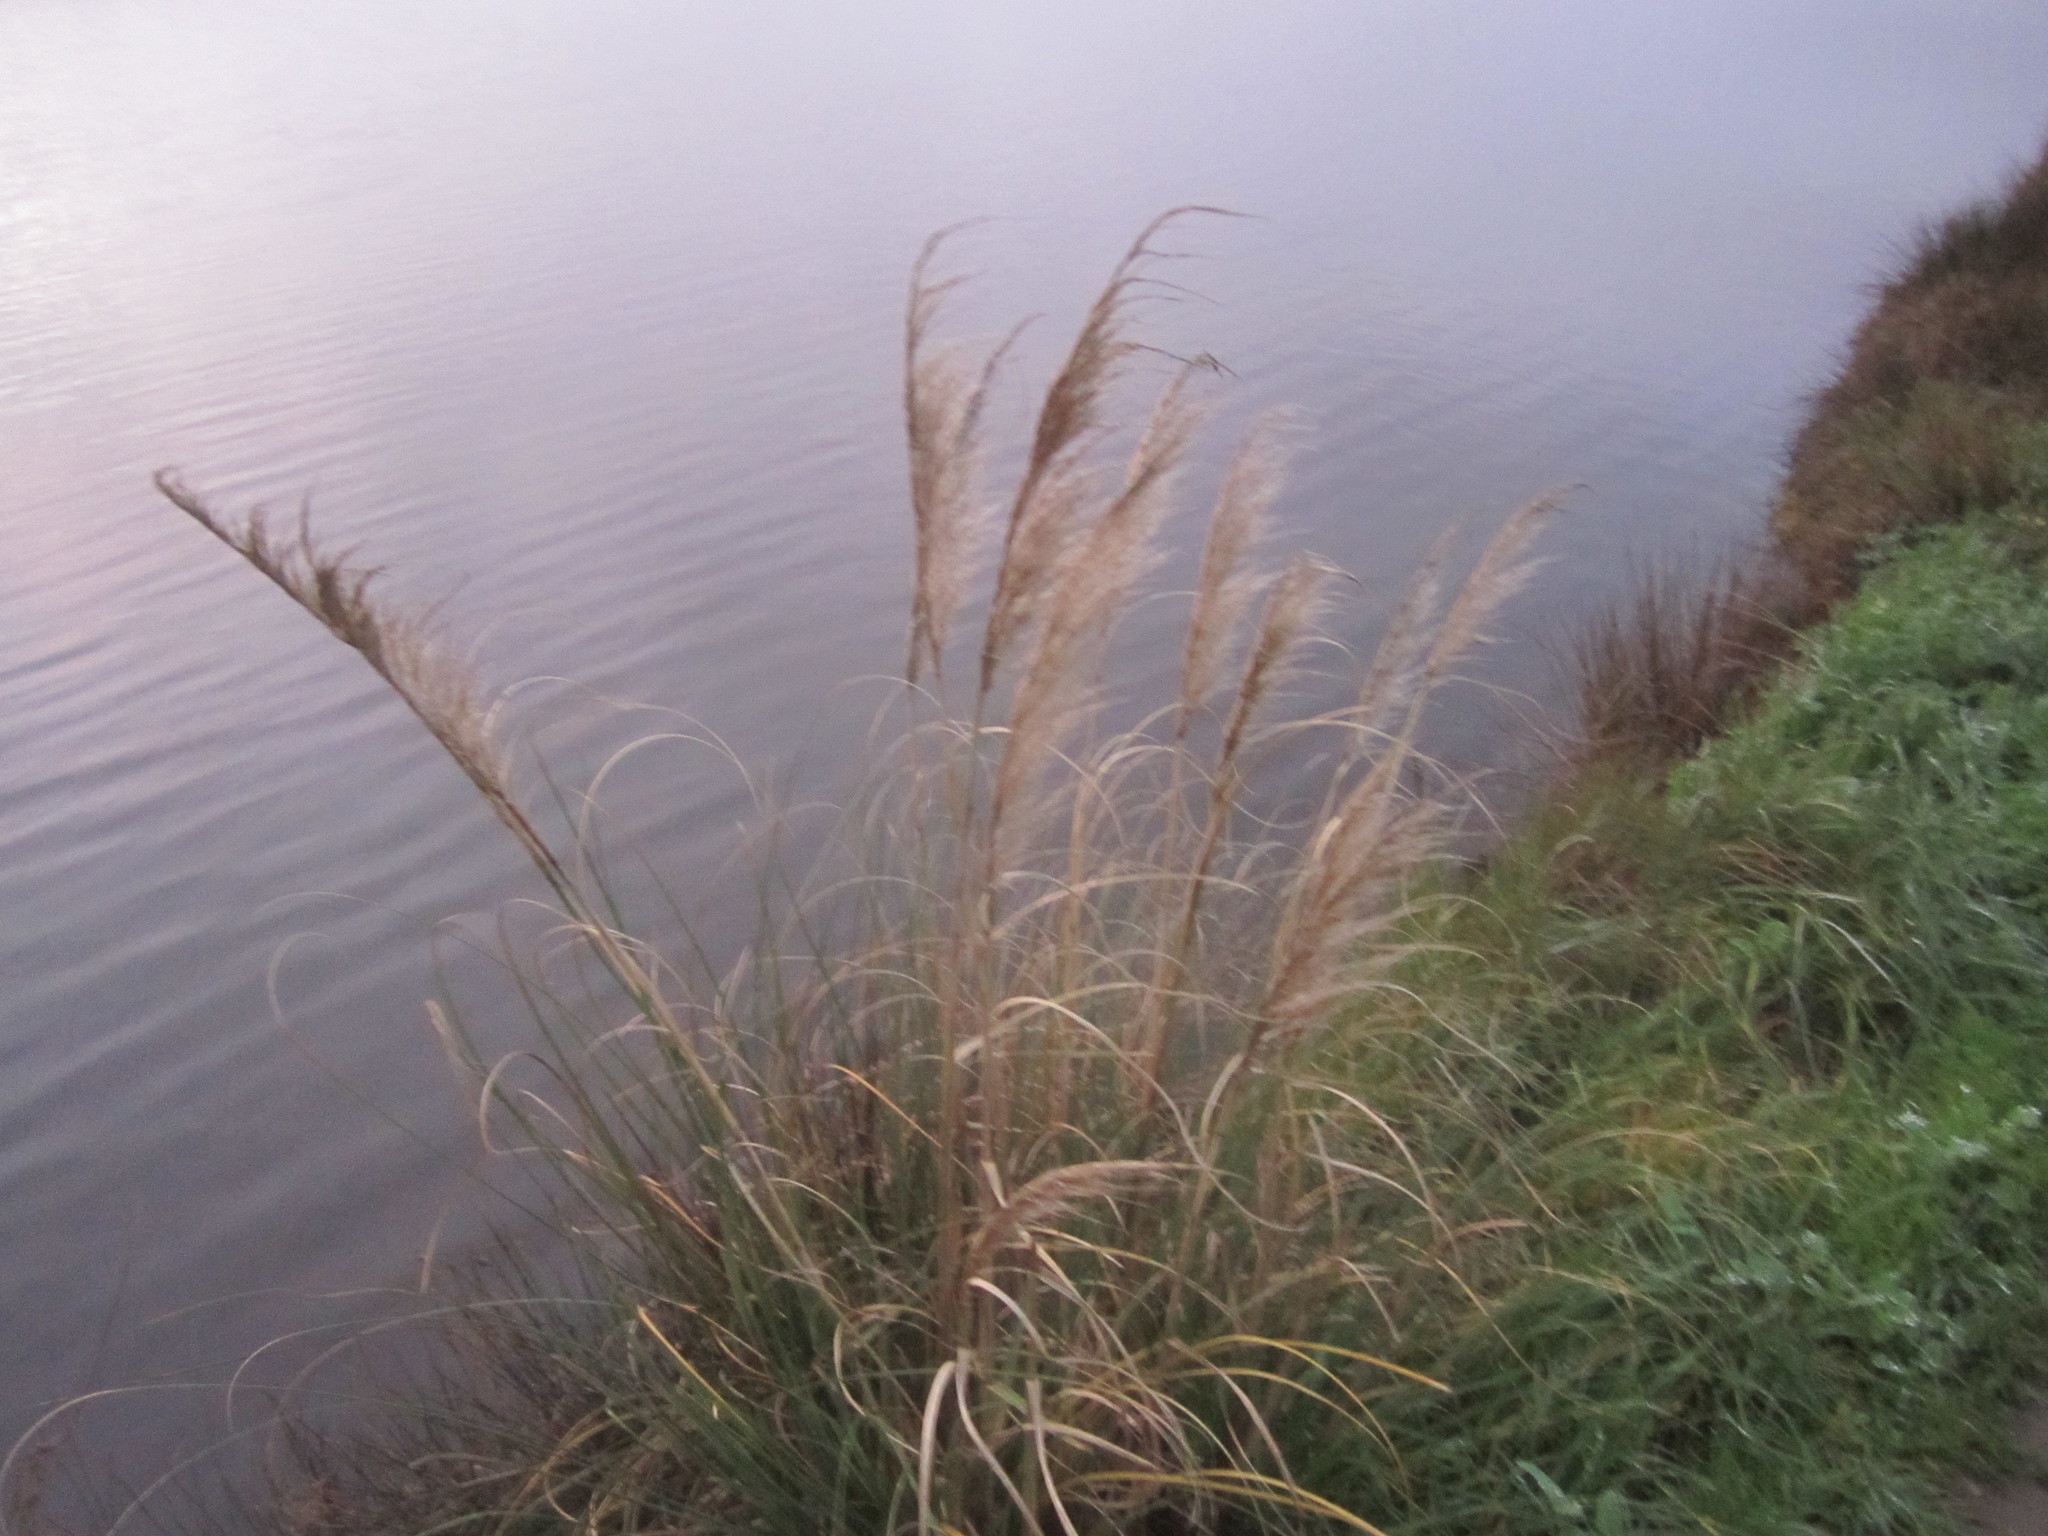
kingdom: Plantae
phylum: Tracheophyta
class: Liliopsida
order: Poales
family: Poaceae
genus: Cortaderia
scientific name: Cortaderia selloana
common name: Uruguayan pampas grass
